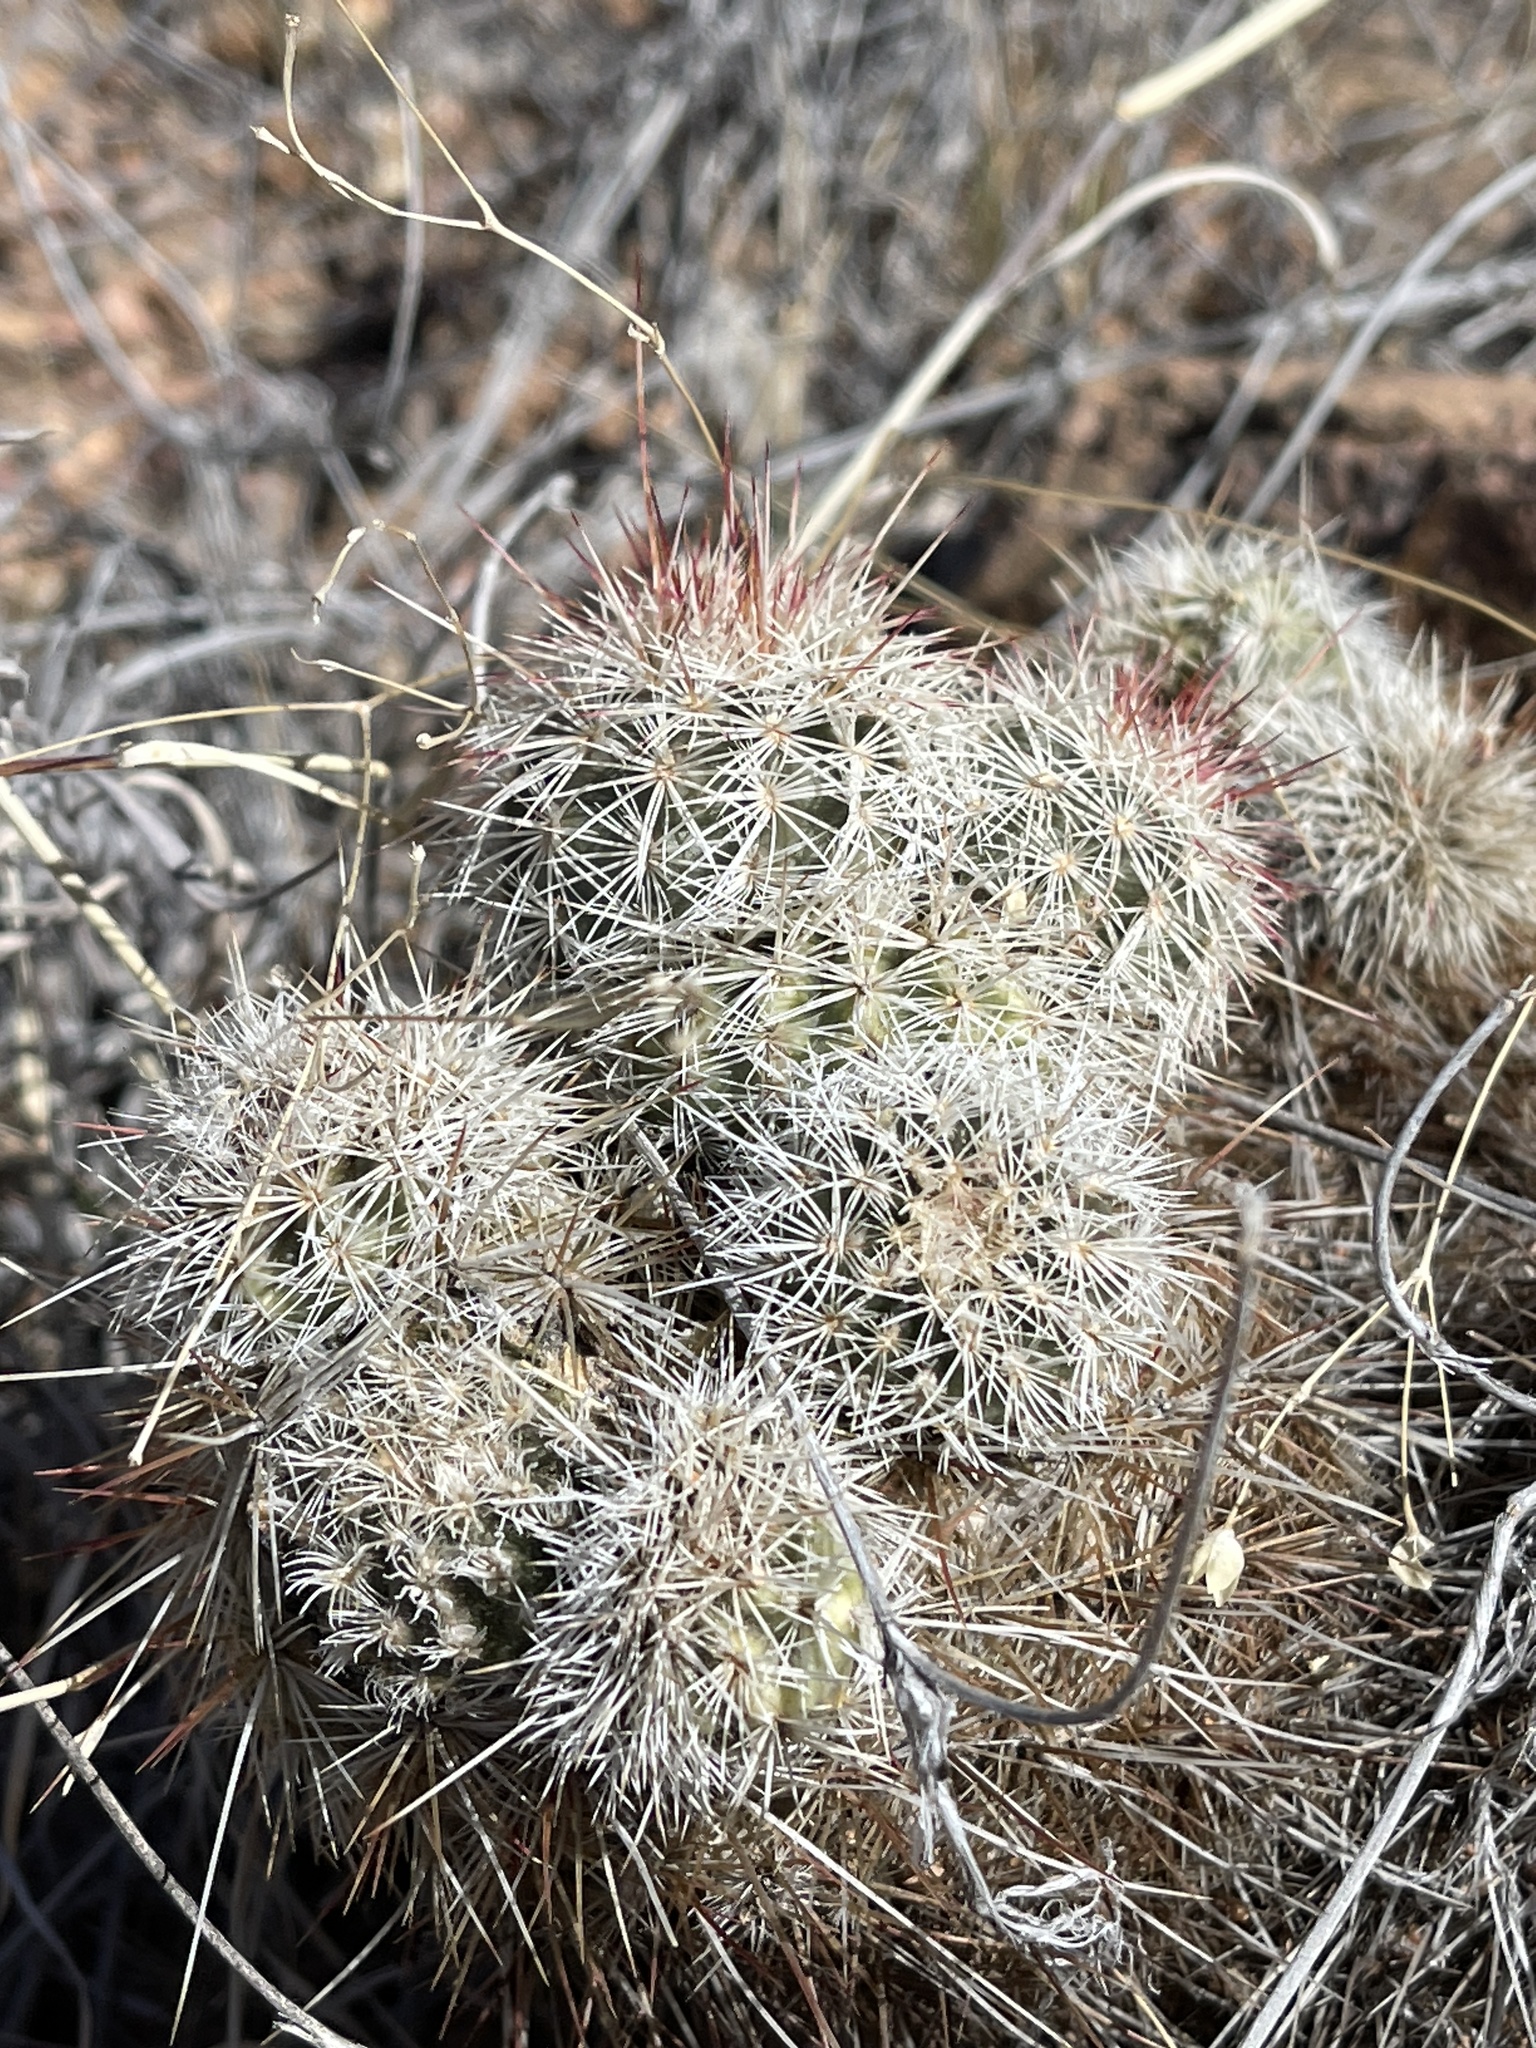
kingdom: Plantae
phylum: Tracheophyta
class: Magnoliopsida
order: Caryophyllales
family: Cactaceae
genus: Echinocereus
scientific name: Echinocereus viridiflorus
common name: Nylon hedgehog cactus
